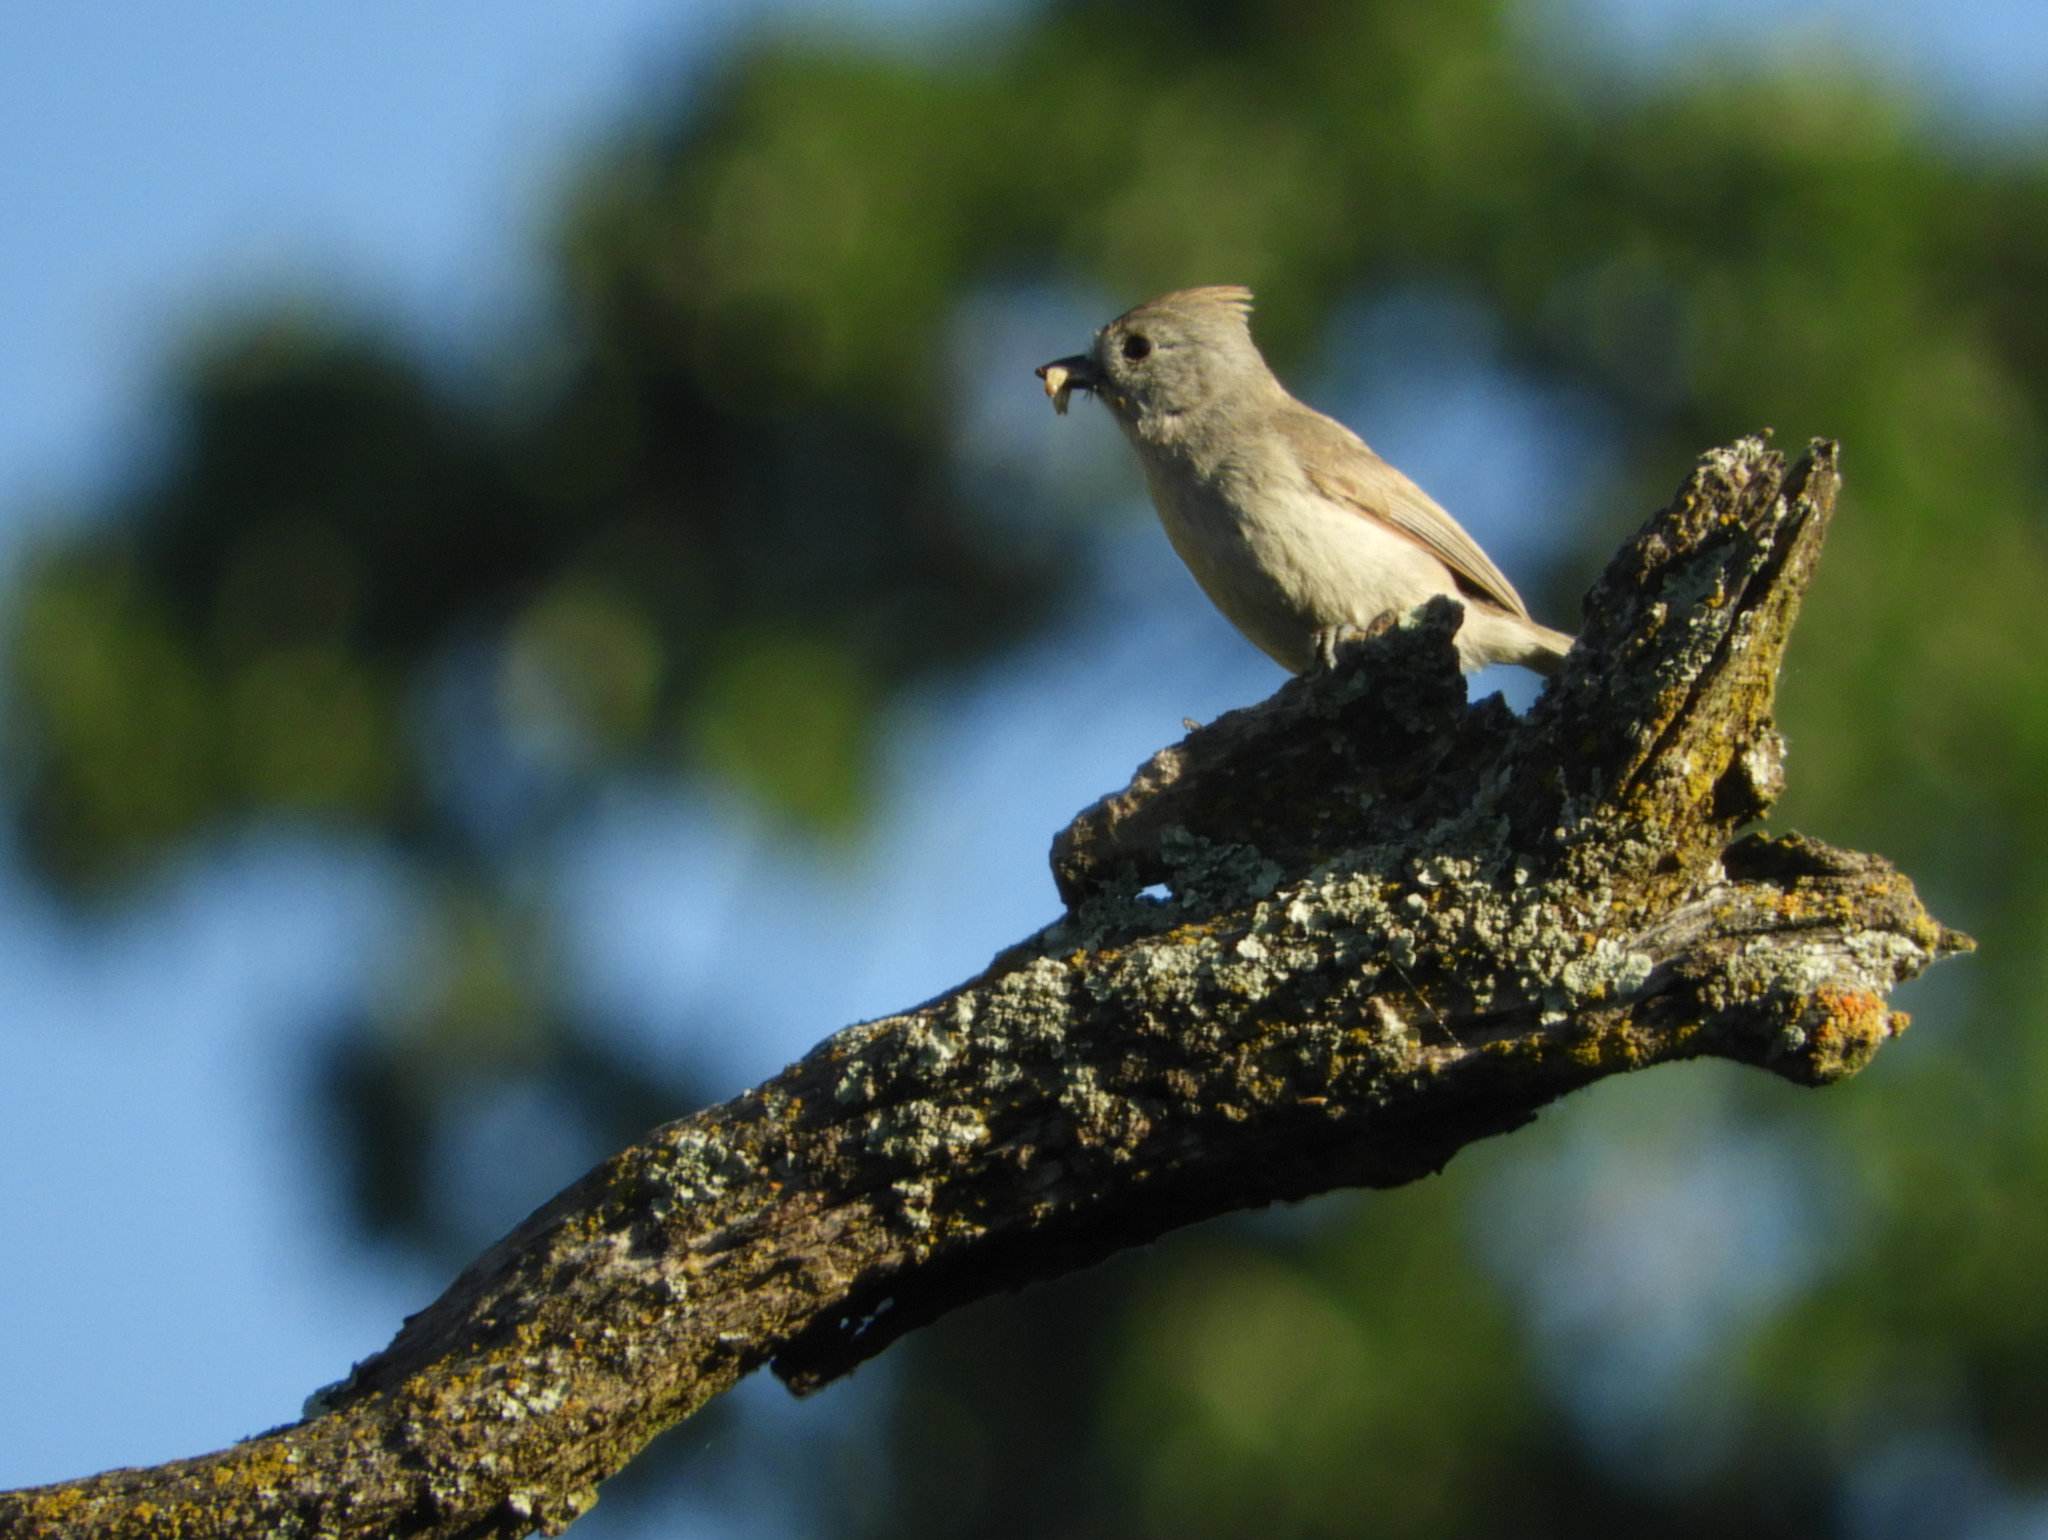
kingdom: Animalia
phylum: Chordata
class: Aves
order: Passeriformes
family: Paridae
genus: Baeolophus
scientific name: Baeolophus inornatus
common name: Oak titmouse
